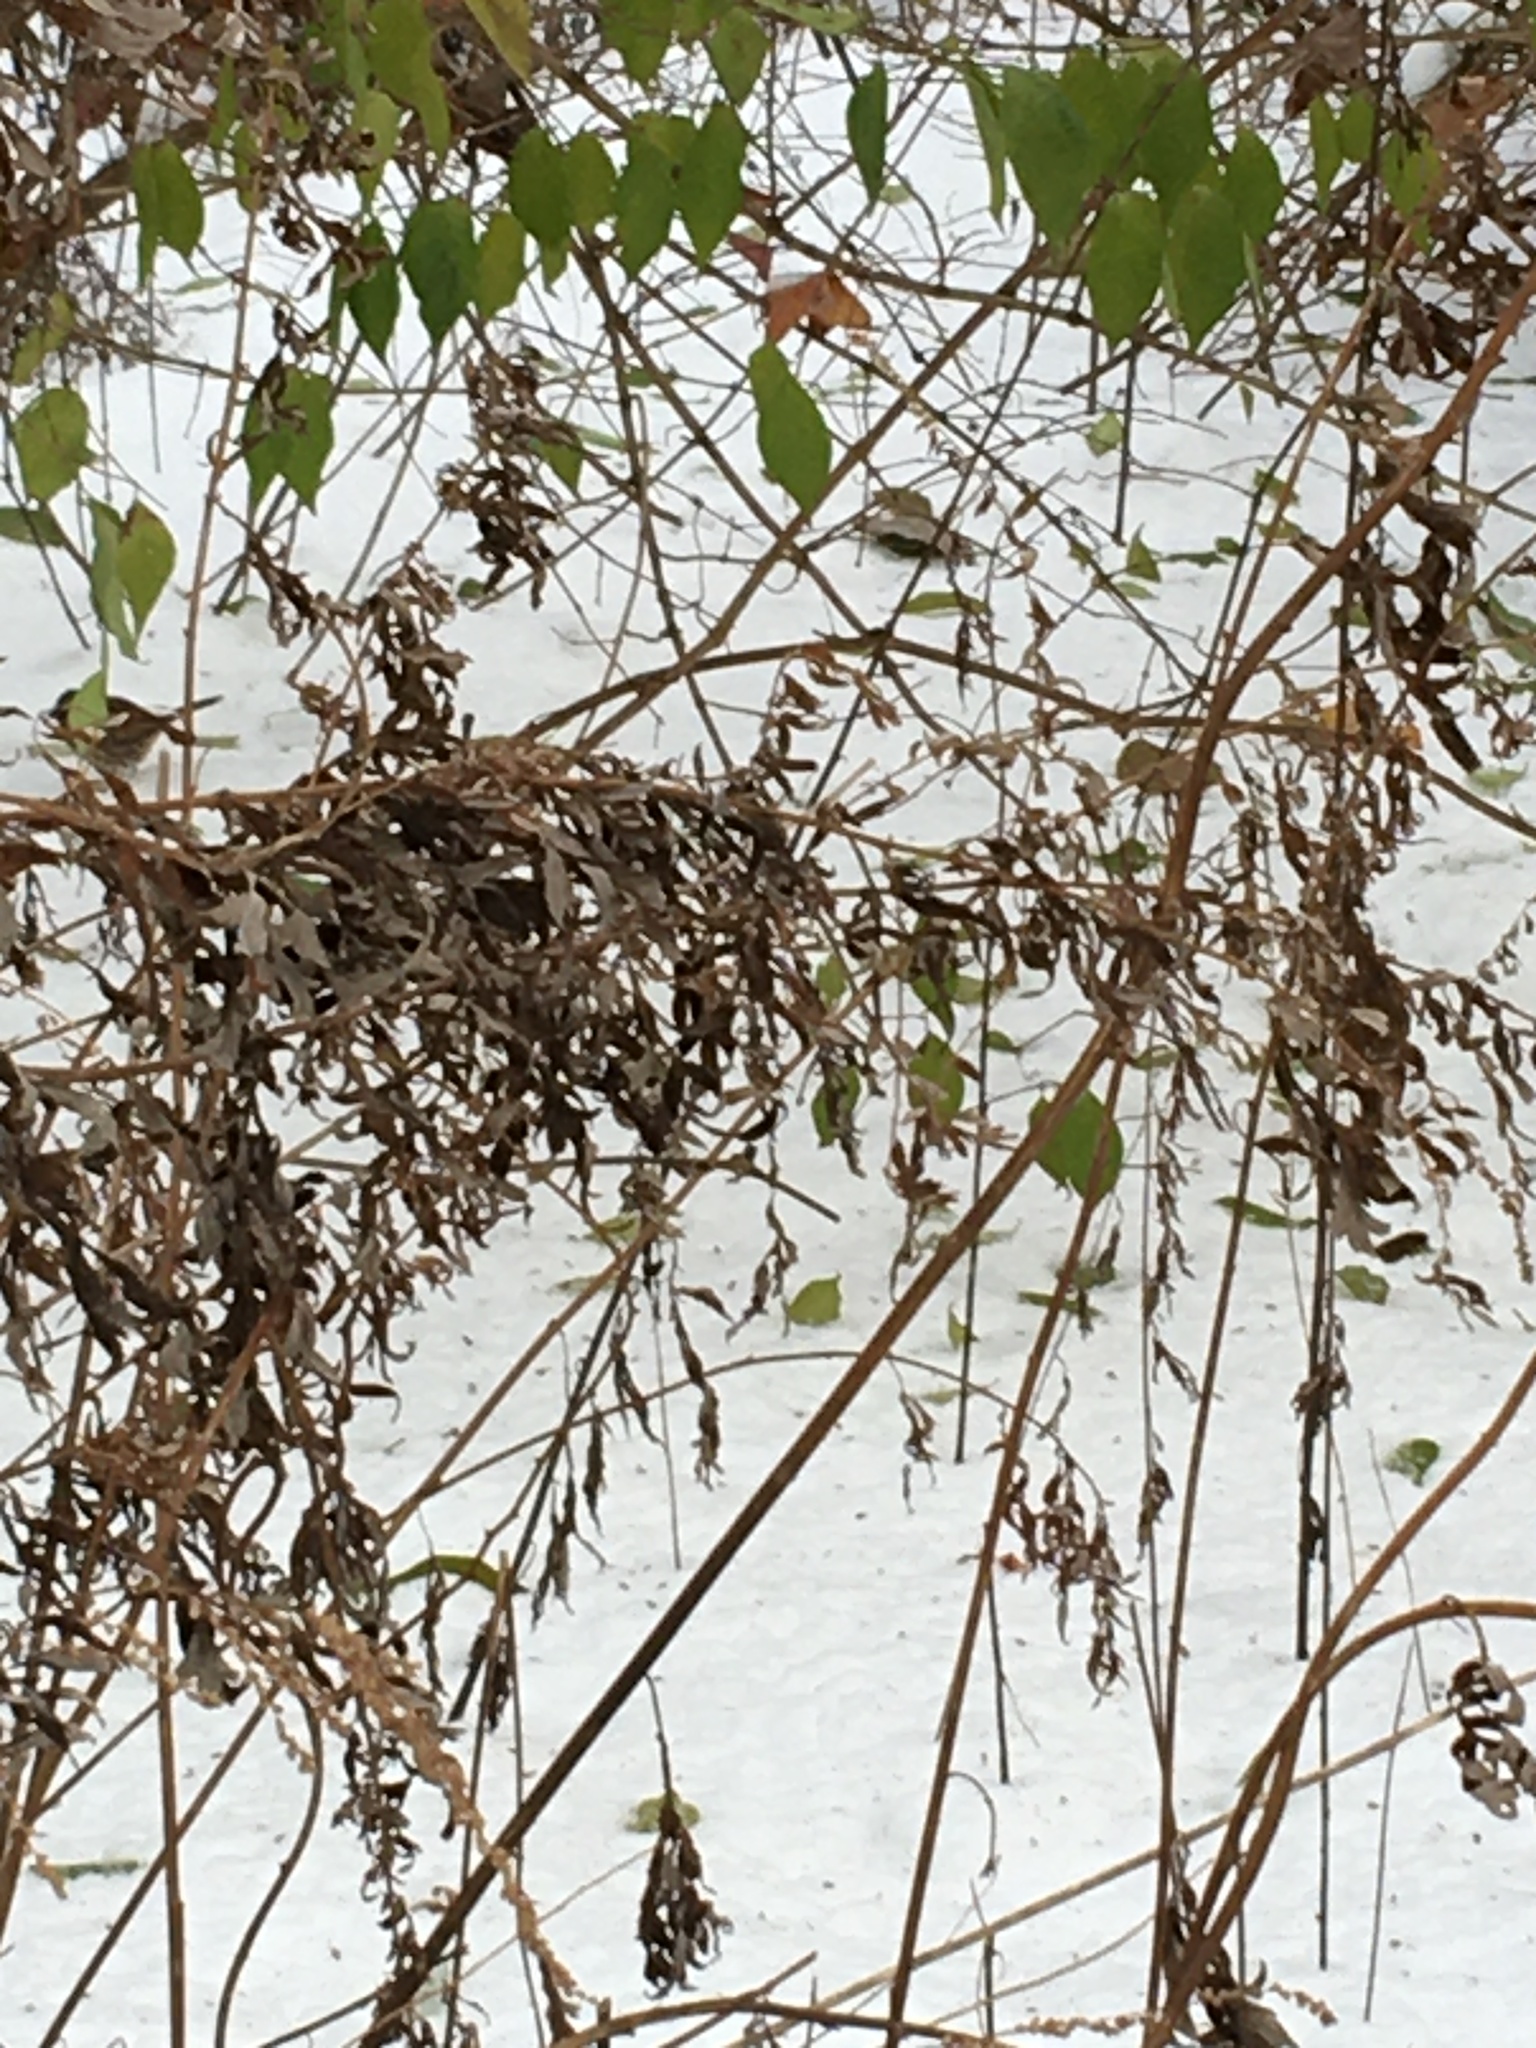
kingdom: Plantae
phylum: Tracheophyta
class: Magnoliopsida
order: Asterales
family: Asteraceae
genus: Artemisia
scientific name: Artemisia vulgaris
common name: Mugwort
